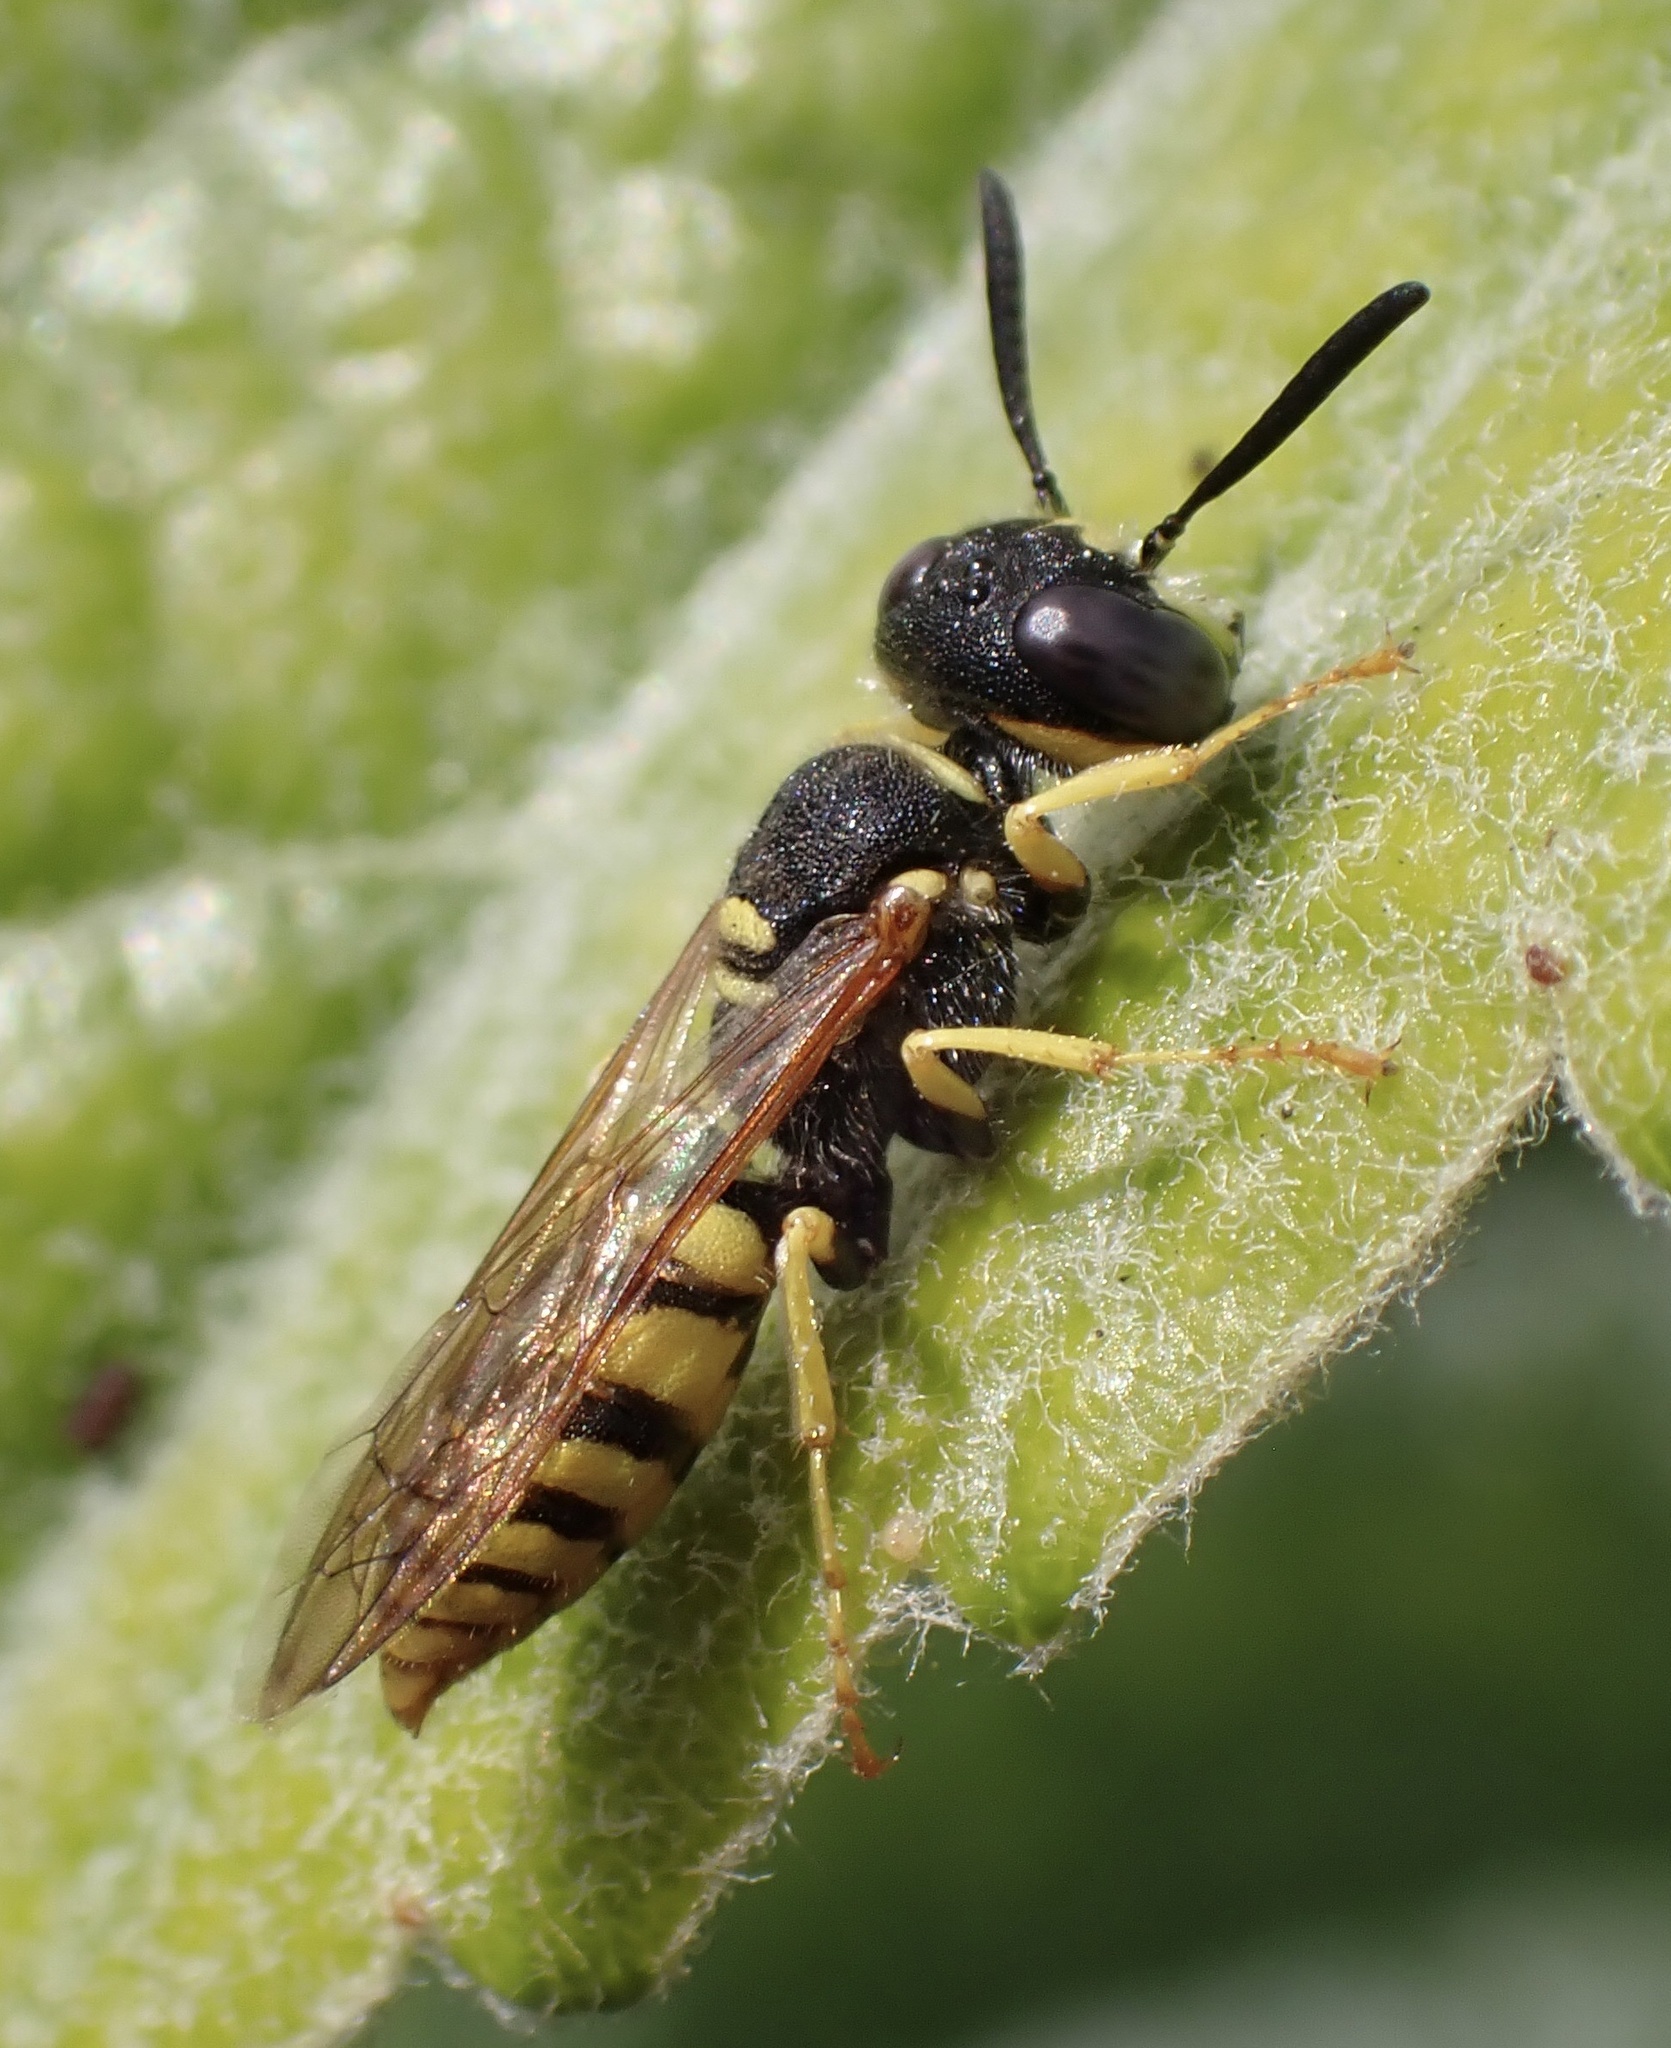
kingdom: Animalia
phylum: Arthropoda
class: Insecta
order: Hymenoptera
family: Crabronidae
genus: Philanthus
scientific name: Philanthus triangulum
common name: Bee wolf
